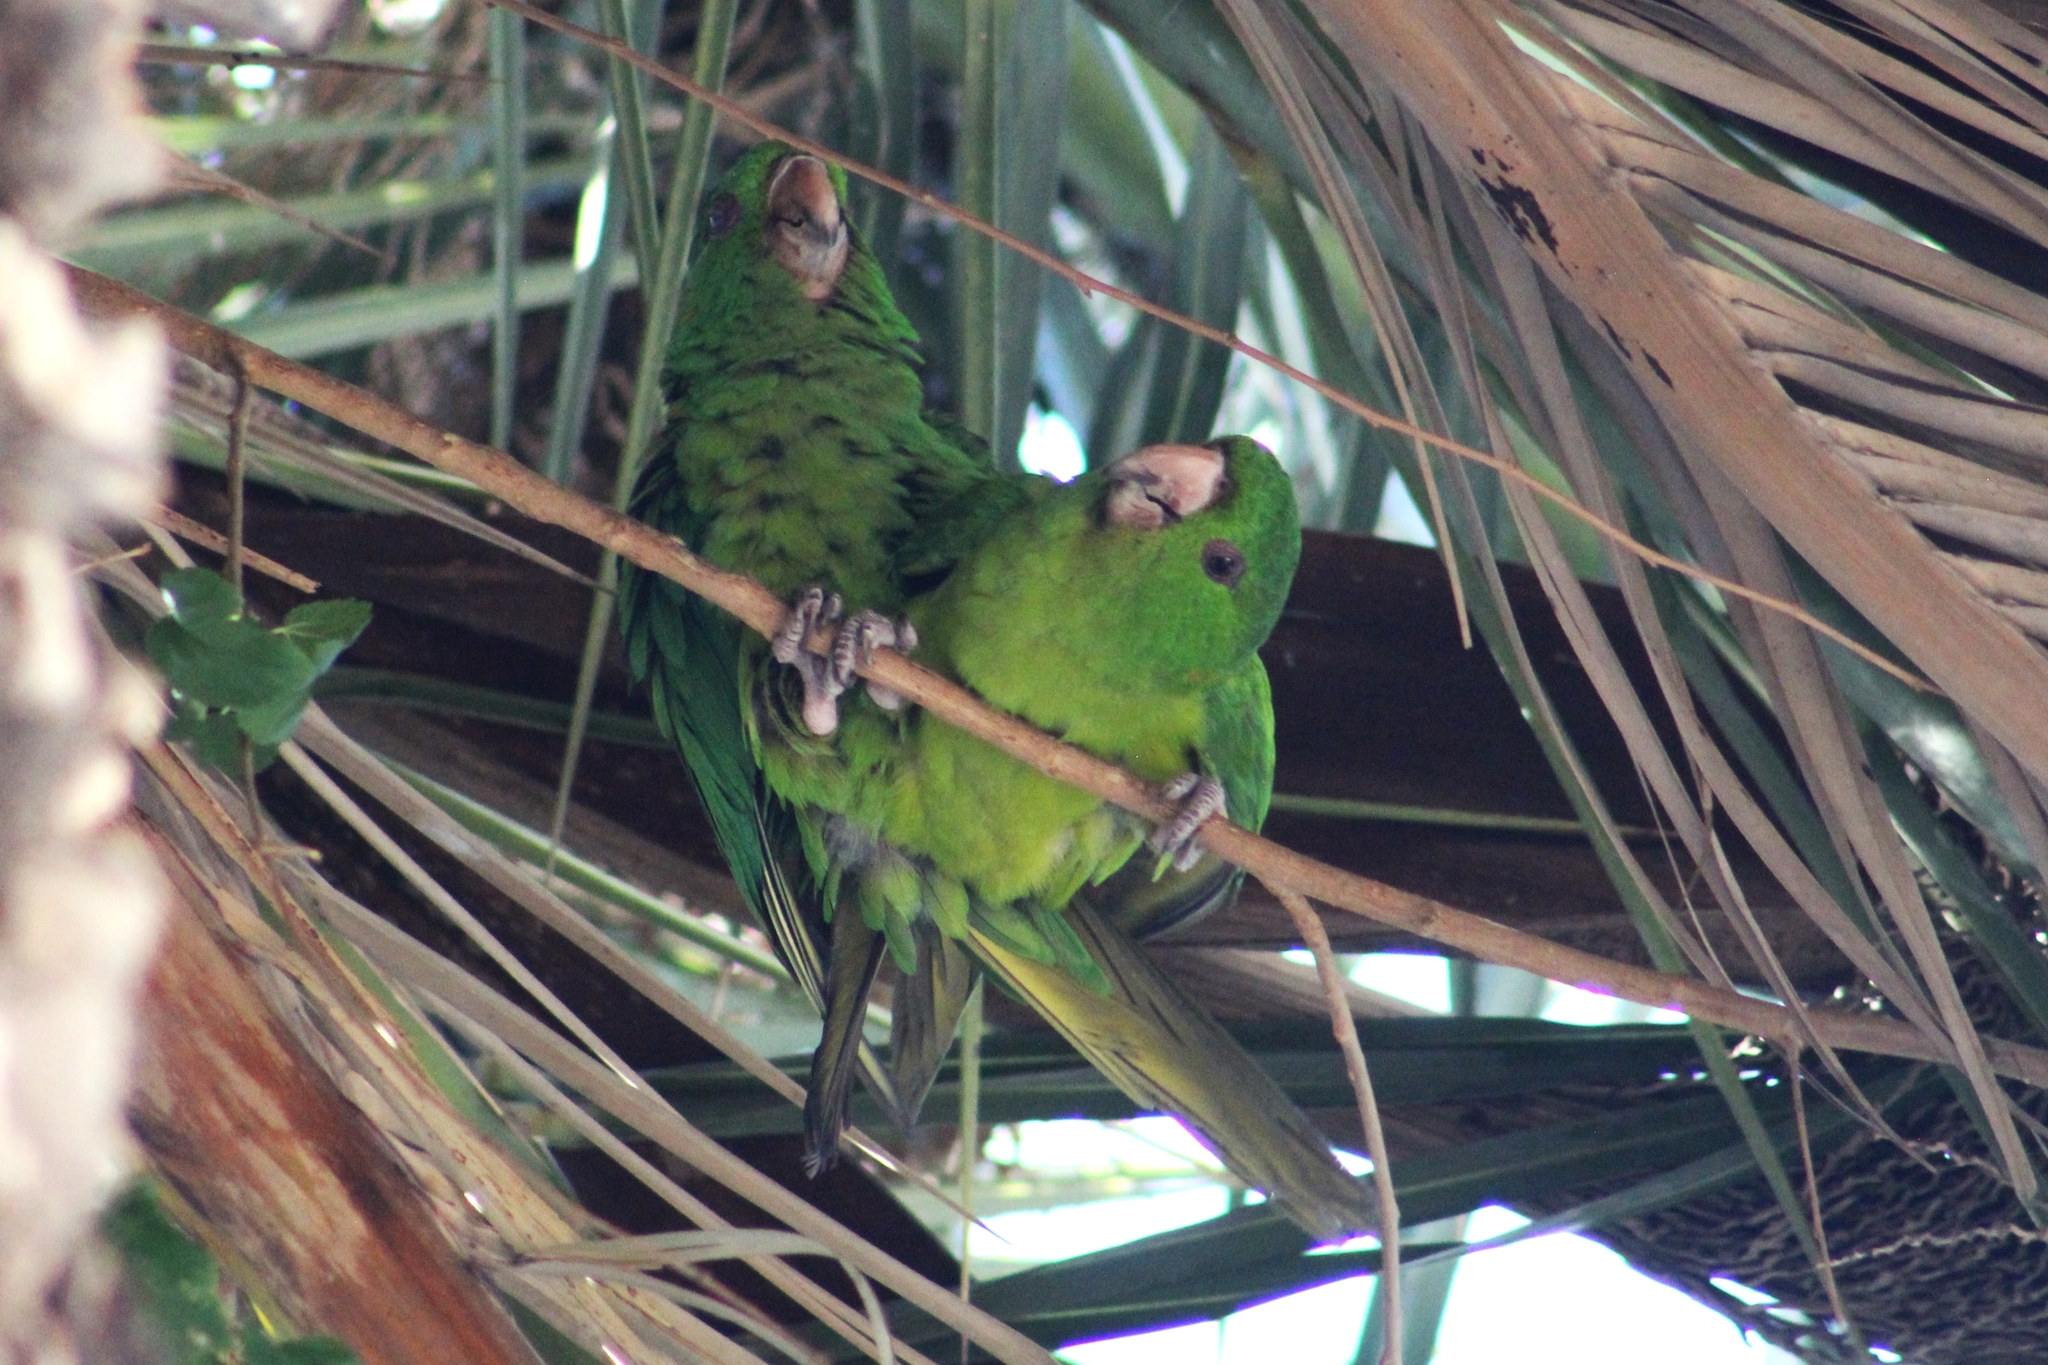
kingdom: Animalia
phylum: Chordata
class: Aves
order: Psittaciformes
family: Psittacidae
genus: Aratinga
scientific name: Aratinga holochlora
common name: Green parakeet
